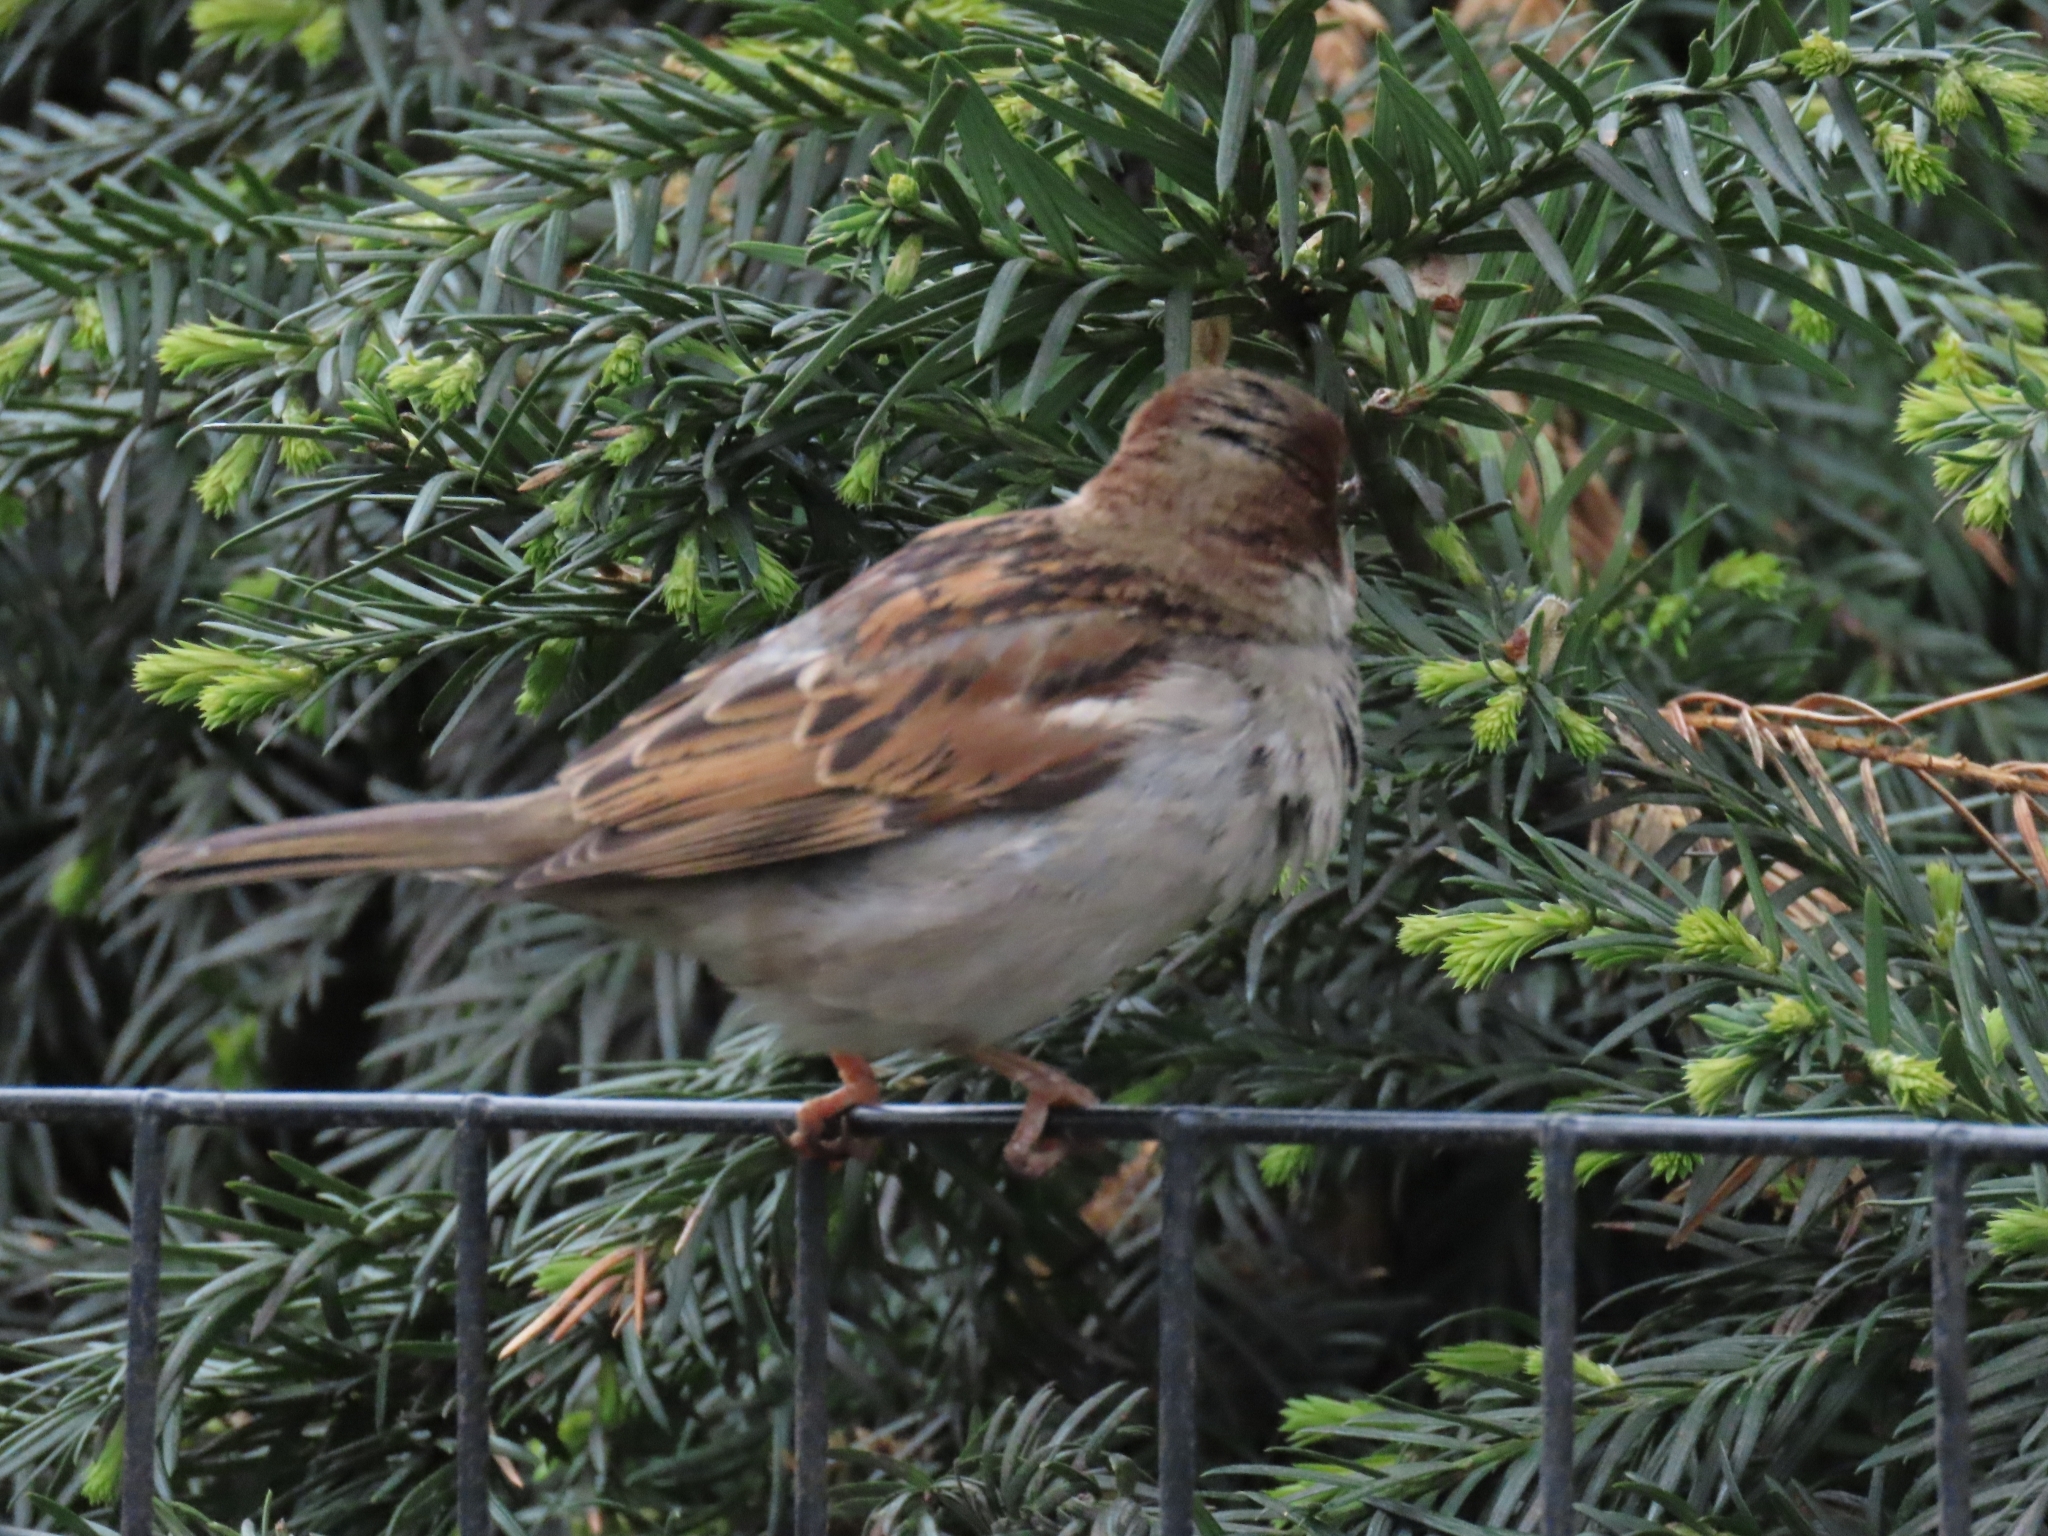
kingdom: Animalia
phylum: Chordata
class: Aves
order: Passeriformes
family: Passeridae
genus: Passer
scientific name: Passer domesticus
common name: House sparrow
